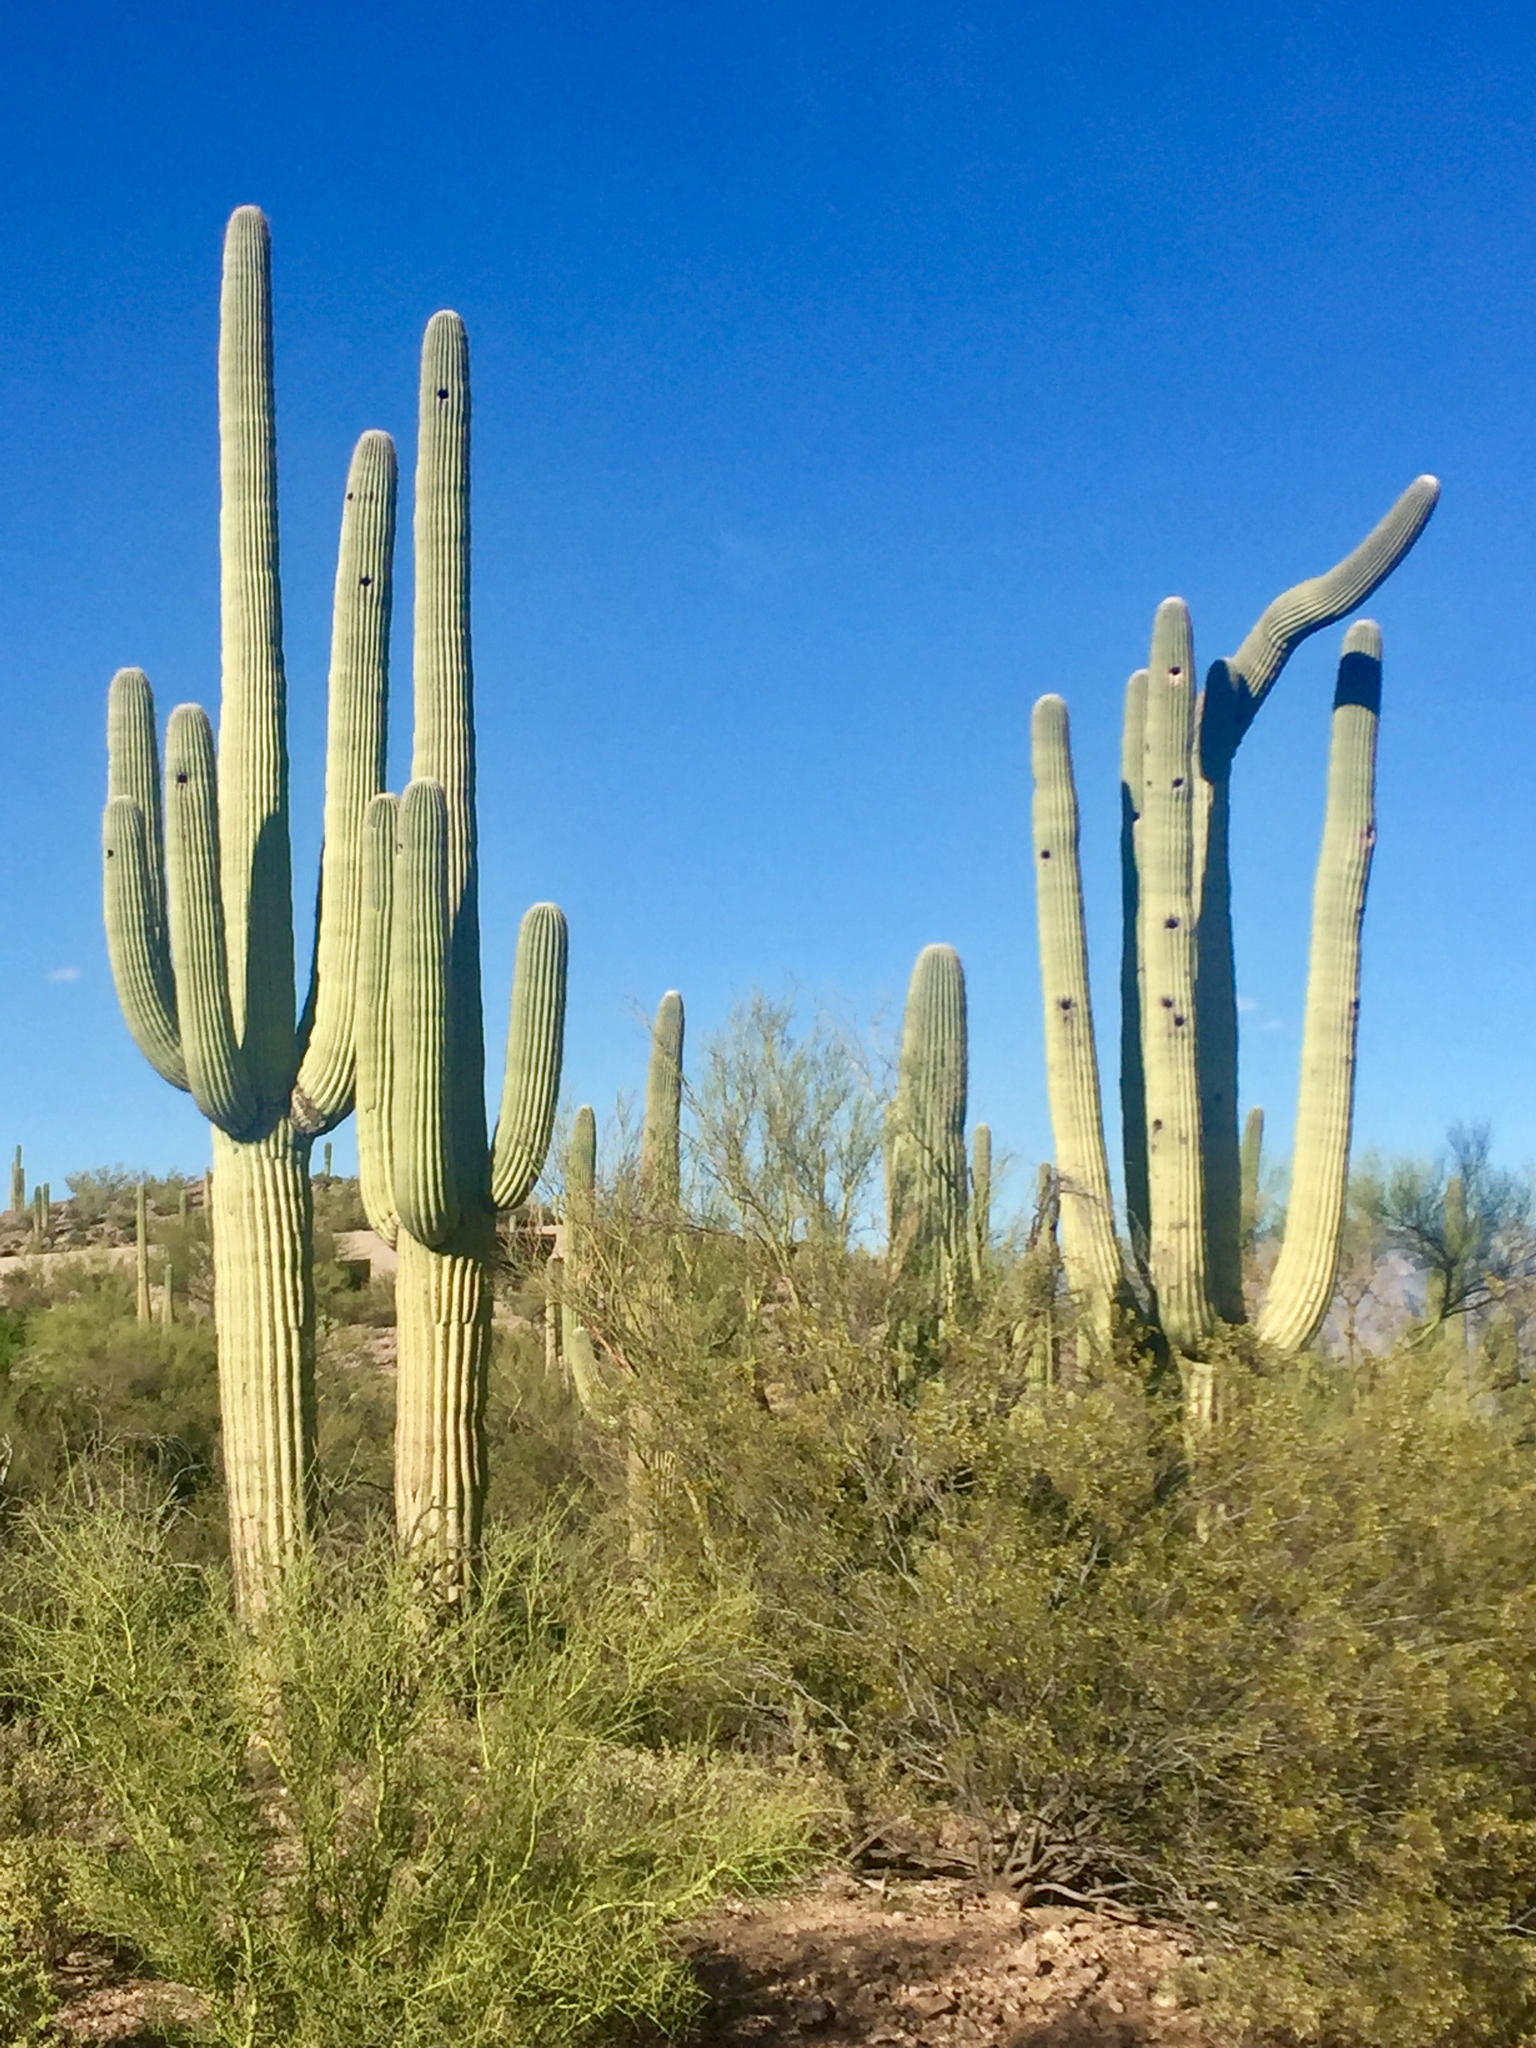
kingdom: Plantae
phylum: Tracheophyta
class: Magnoliopsida
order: Caryophyllales
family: Cactaceae
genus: Carnegiea
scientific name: Carnegiea gigantea
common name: Saguaro
